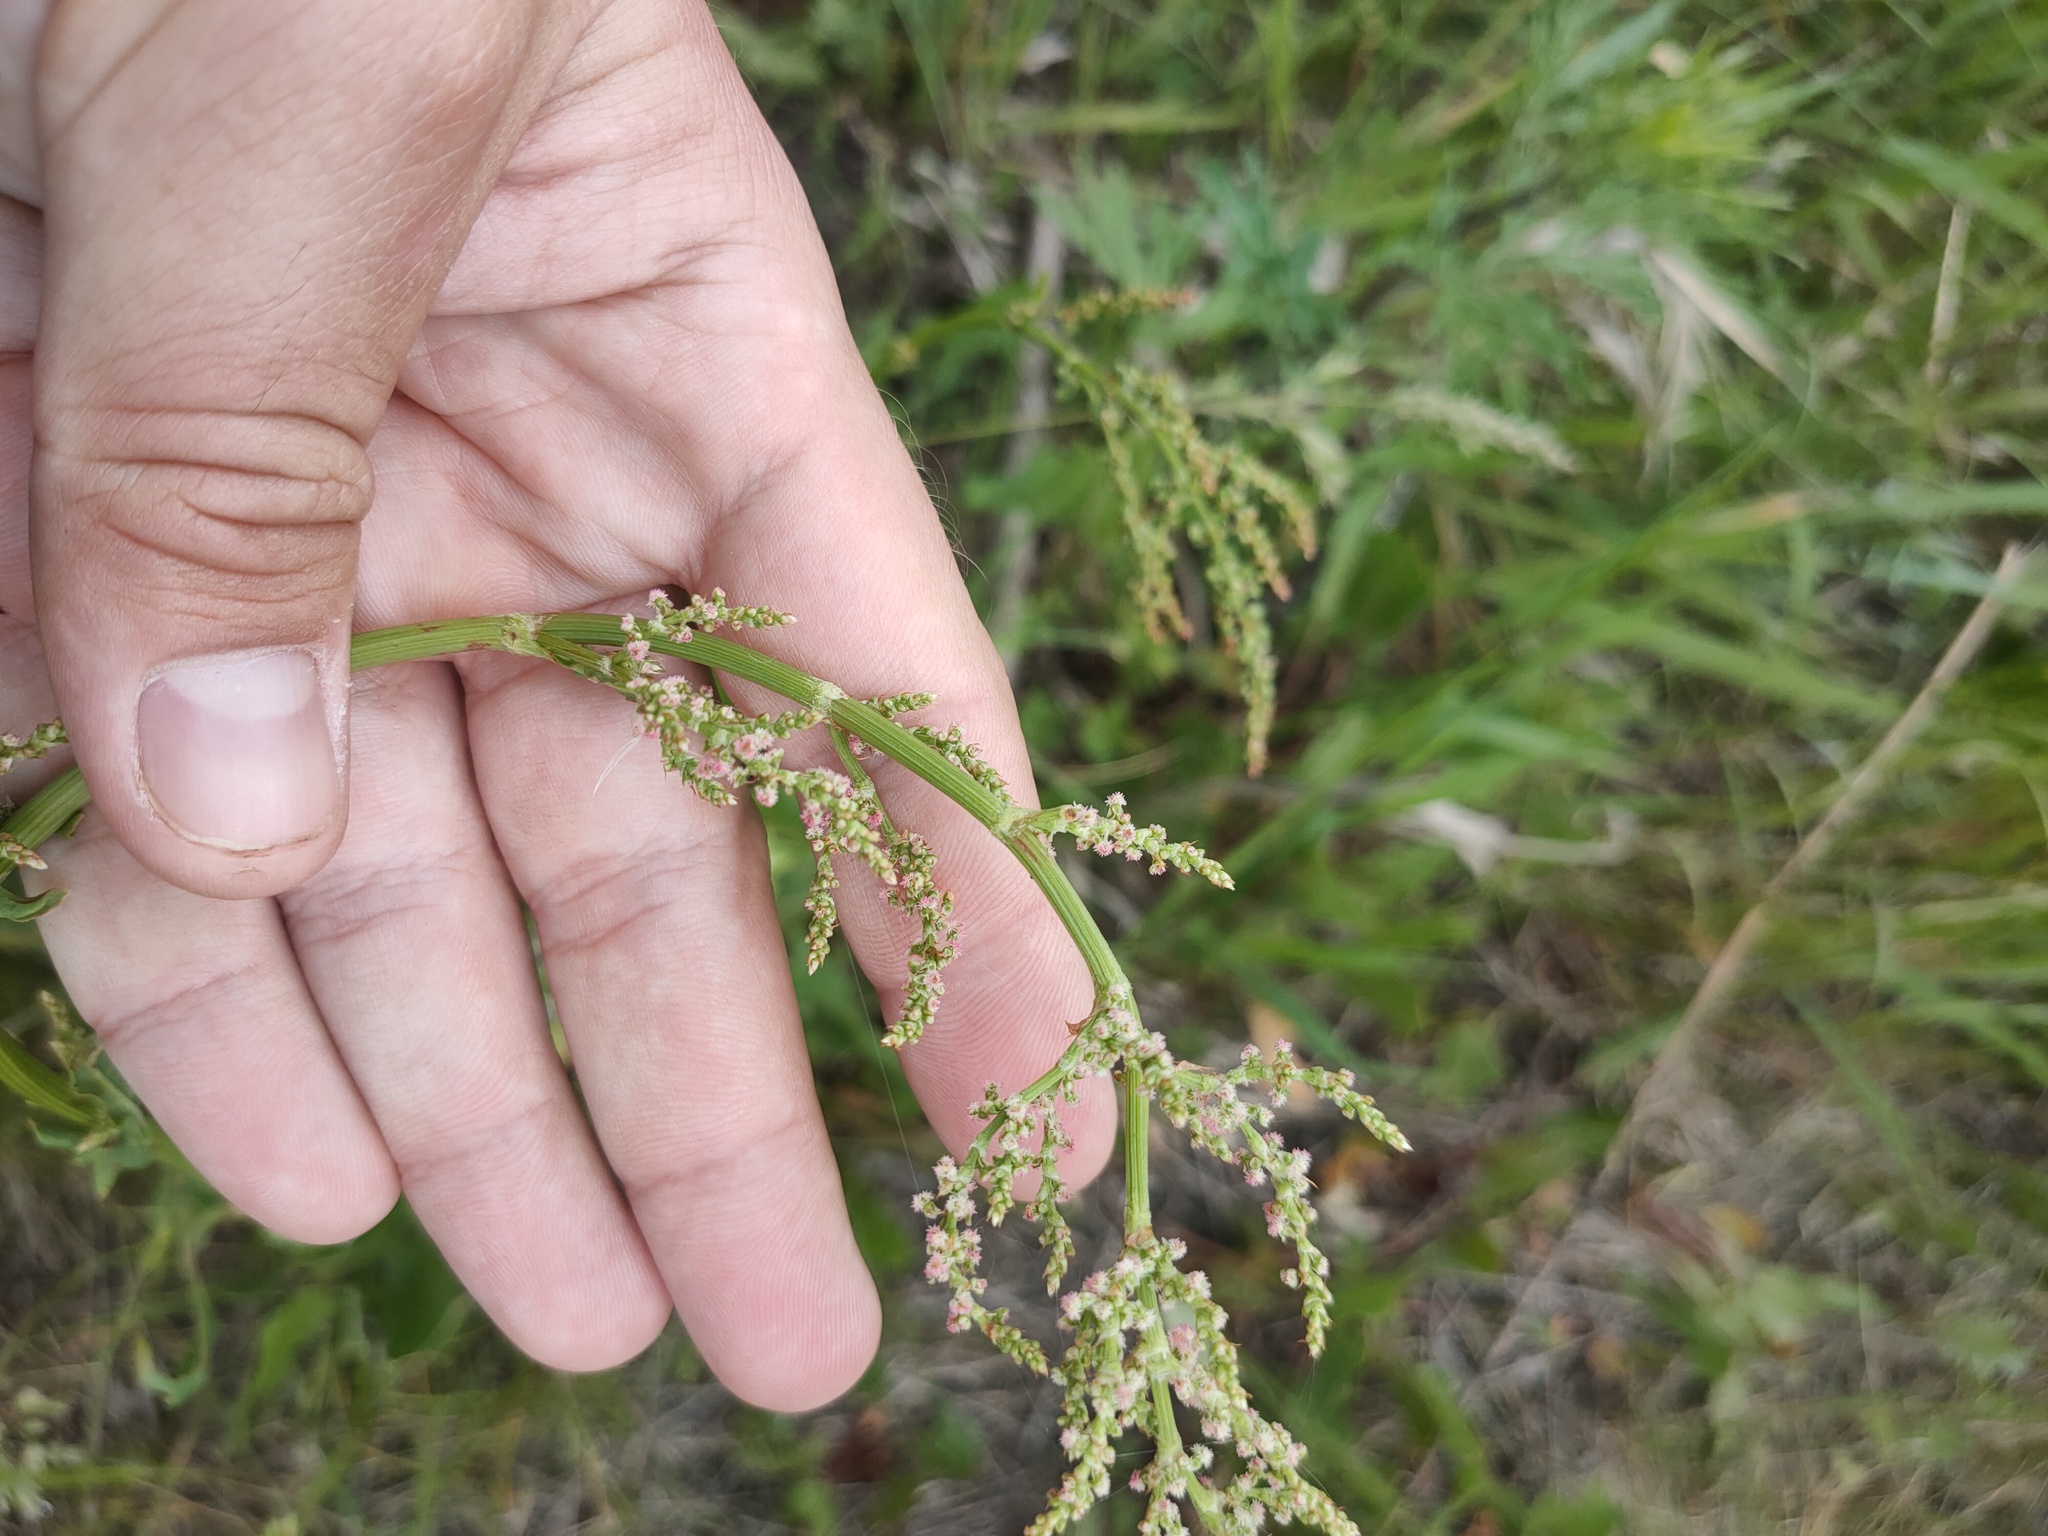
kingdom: Plantae
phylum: Tracheophyta
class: Magnoliopsida
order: Caryophyllales
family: Polygonaceae
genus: Rumex
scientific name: Rumex thyrsiflorus
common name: Garden sorrel
